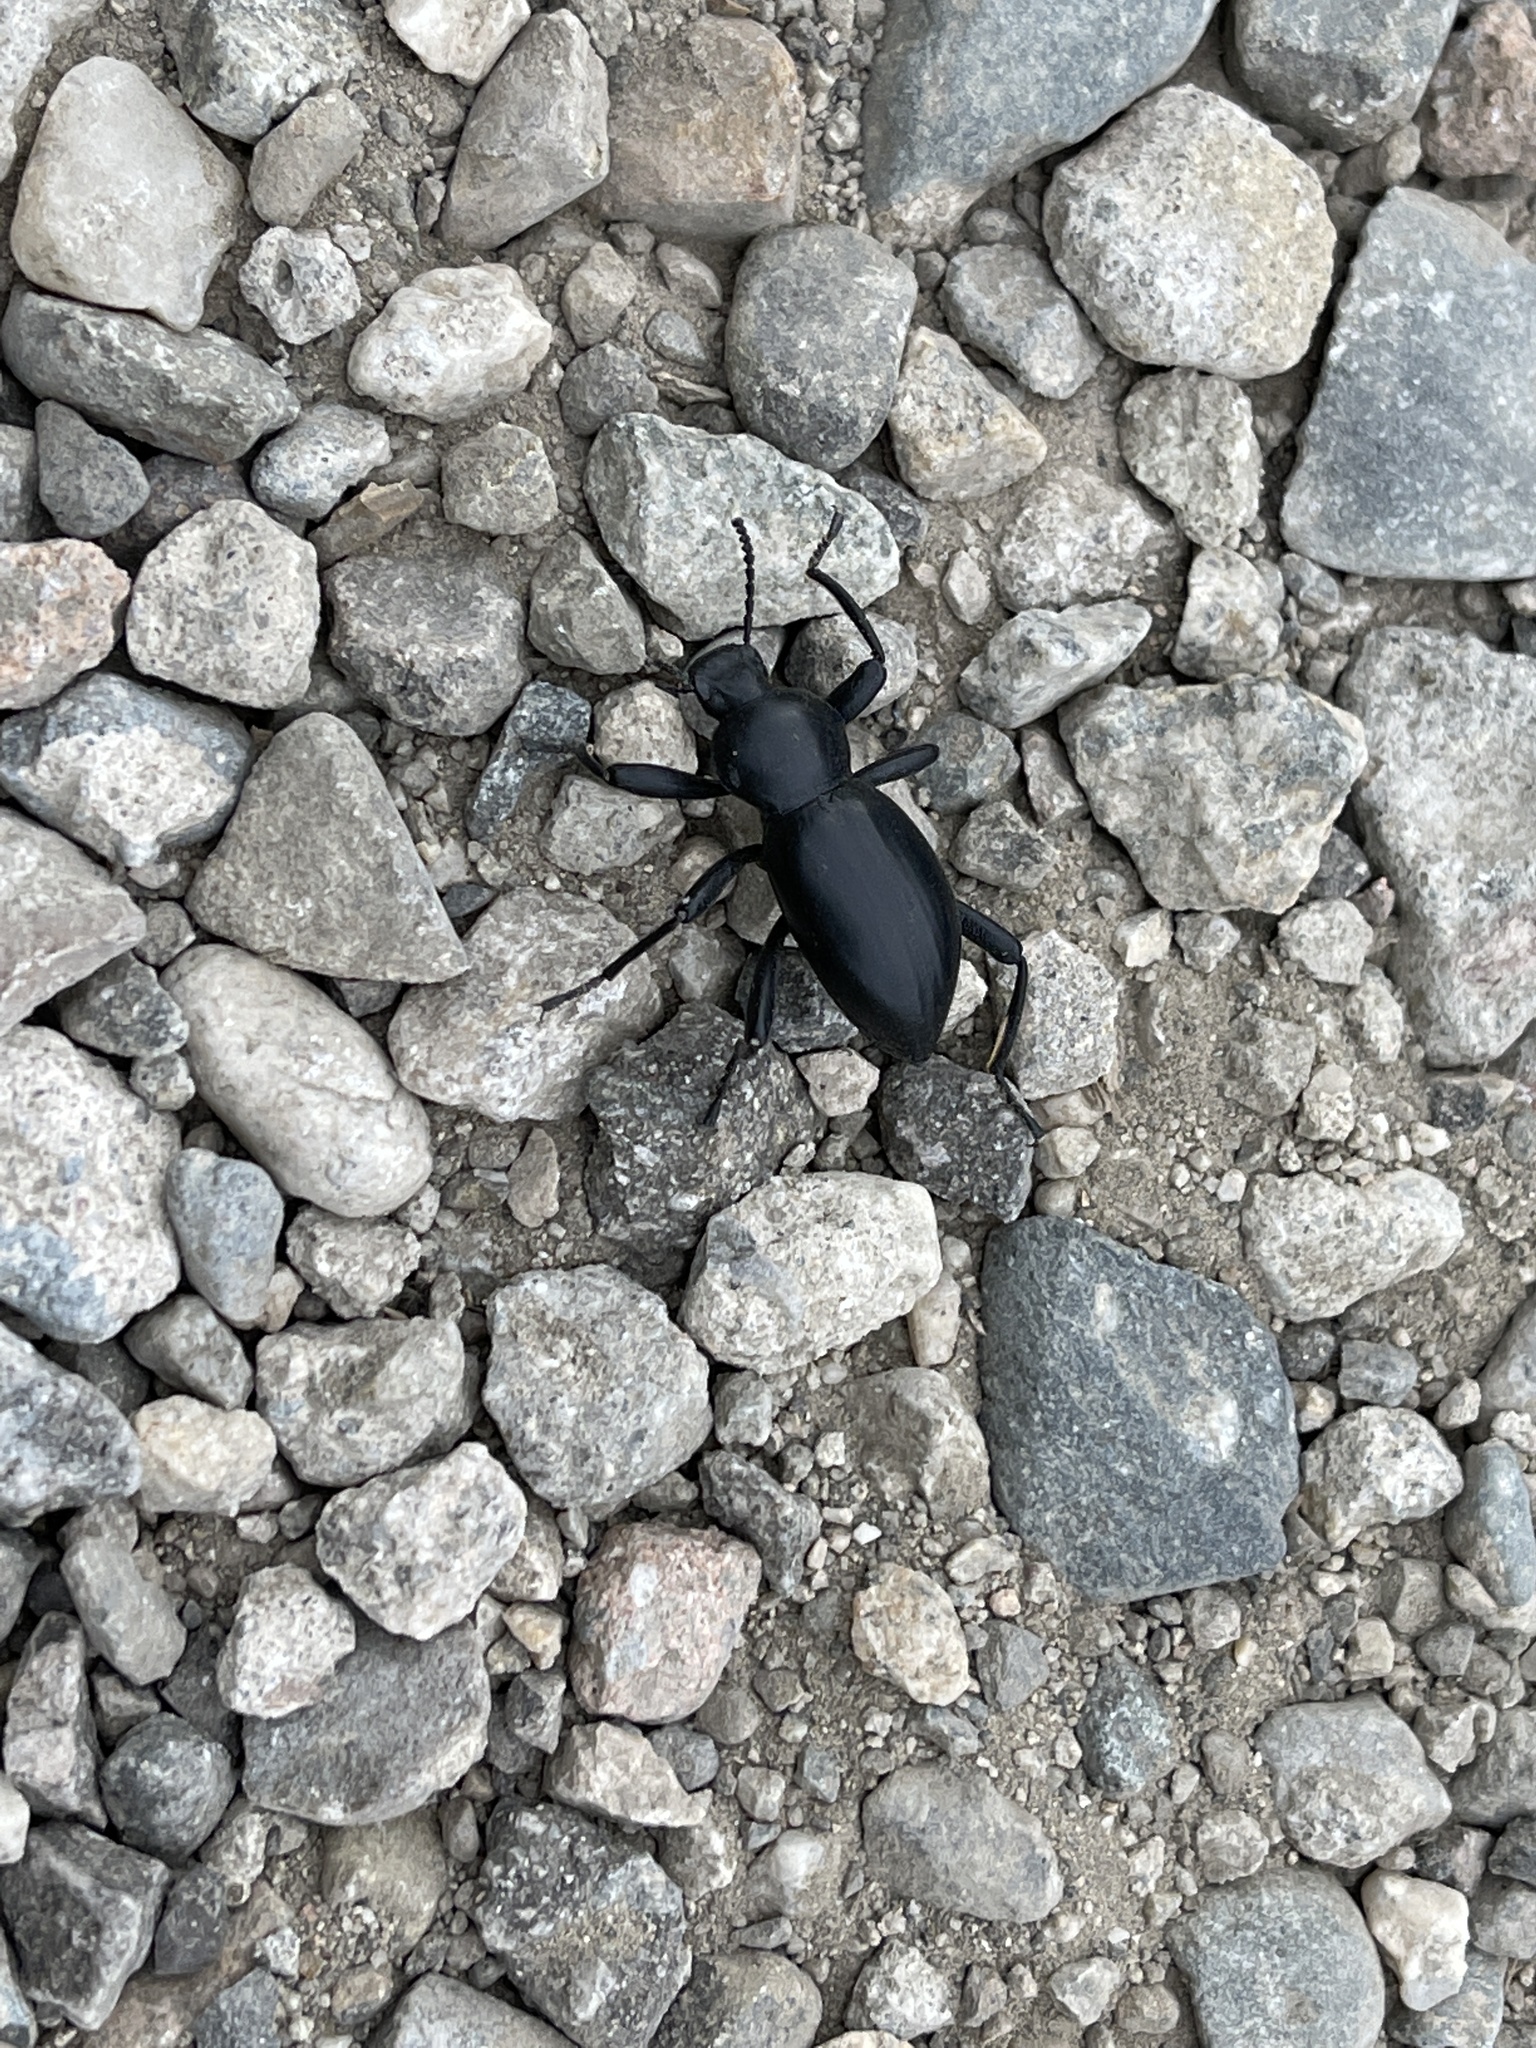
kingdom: Animalia
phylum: Arthropoda
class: Insecta
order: Coleoptera
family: Tenebrionidae
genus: Coelocnemis
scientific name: Coelocnemis magna
